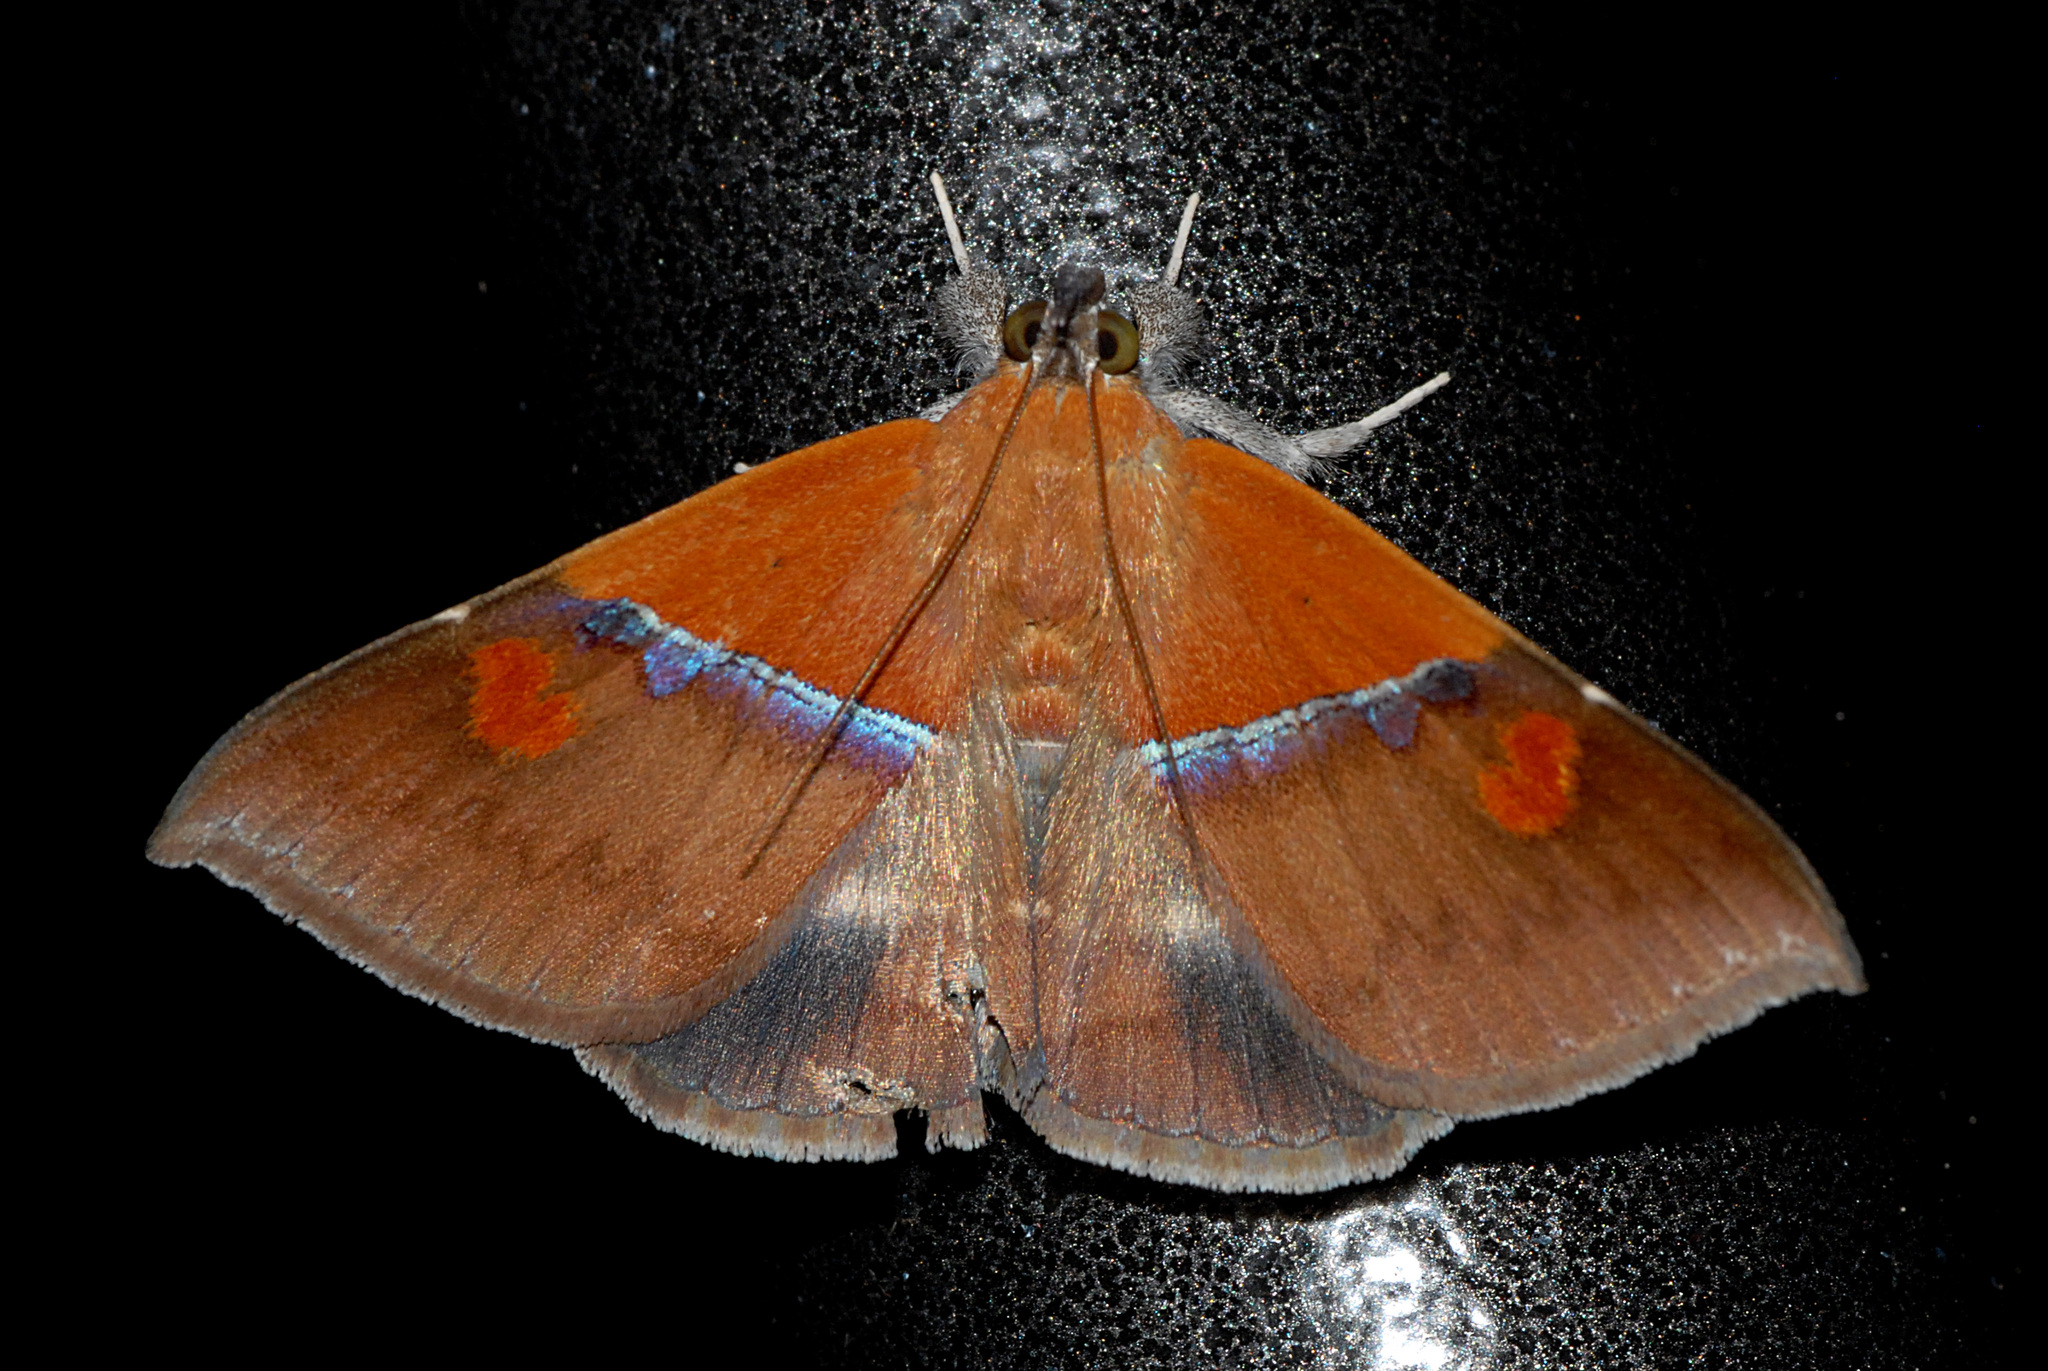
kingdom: Animalia
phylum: Arthropoda
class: Insecta
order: Lepidoptera
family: Erebidae
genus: Sympis
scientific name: Sympis rufibasis
